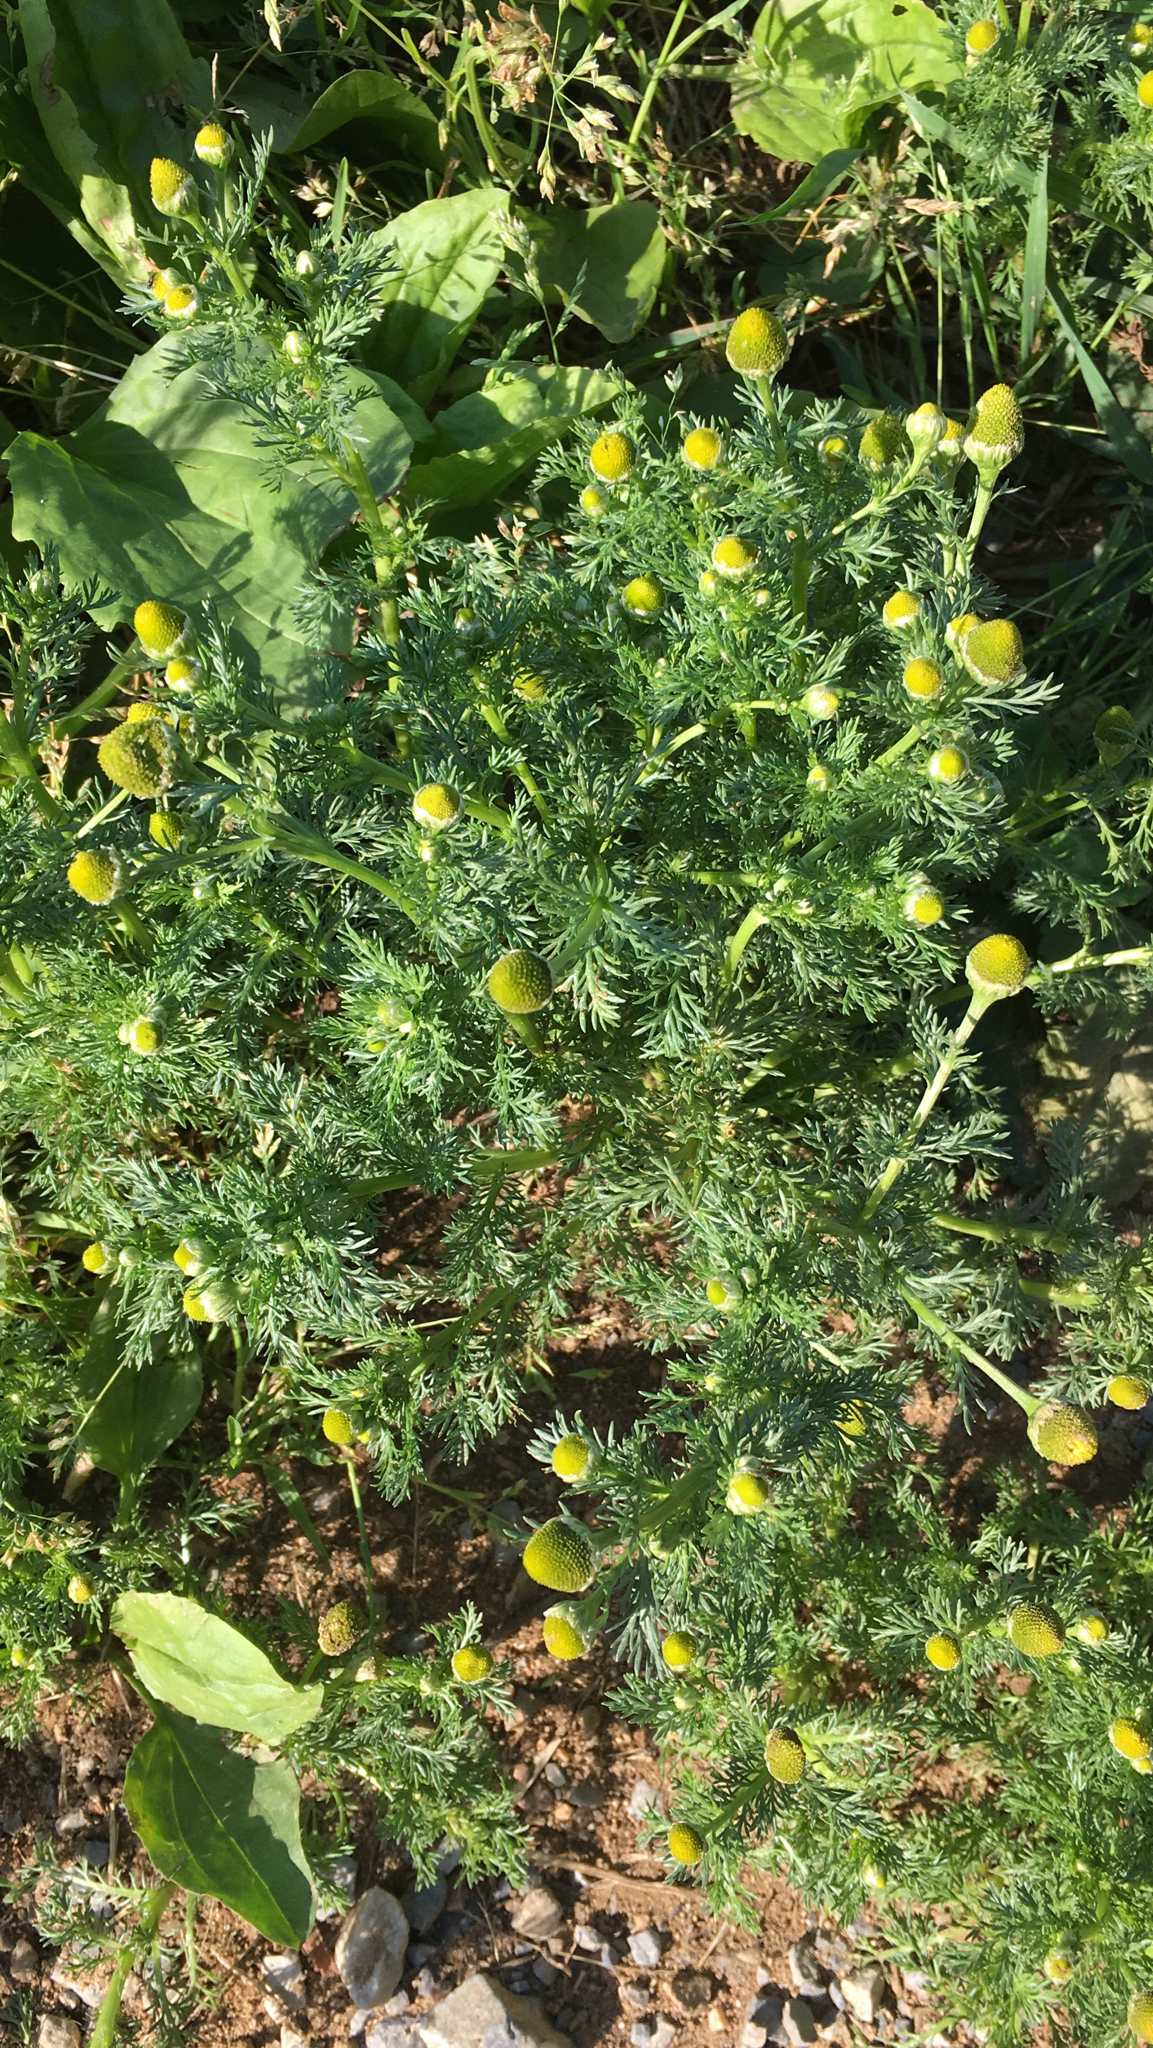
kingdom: Plantae
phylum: Tracheophyta
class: Magnoliopsida
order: Asterales
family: Asteraceae
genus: Matricaria
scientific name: Matricaria discoidea
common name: Disc mayweed
